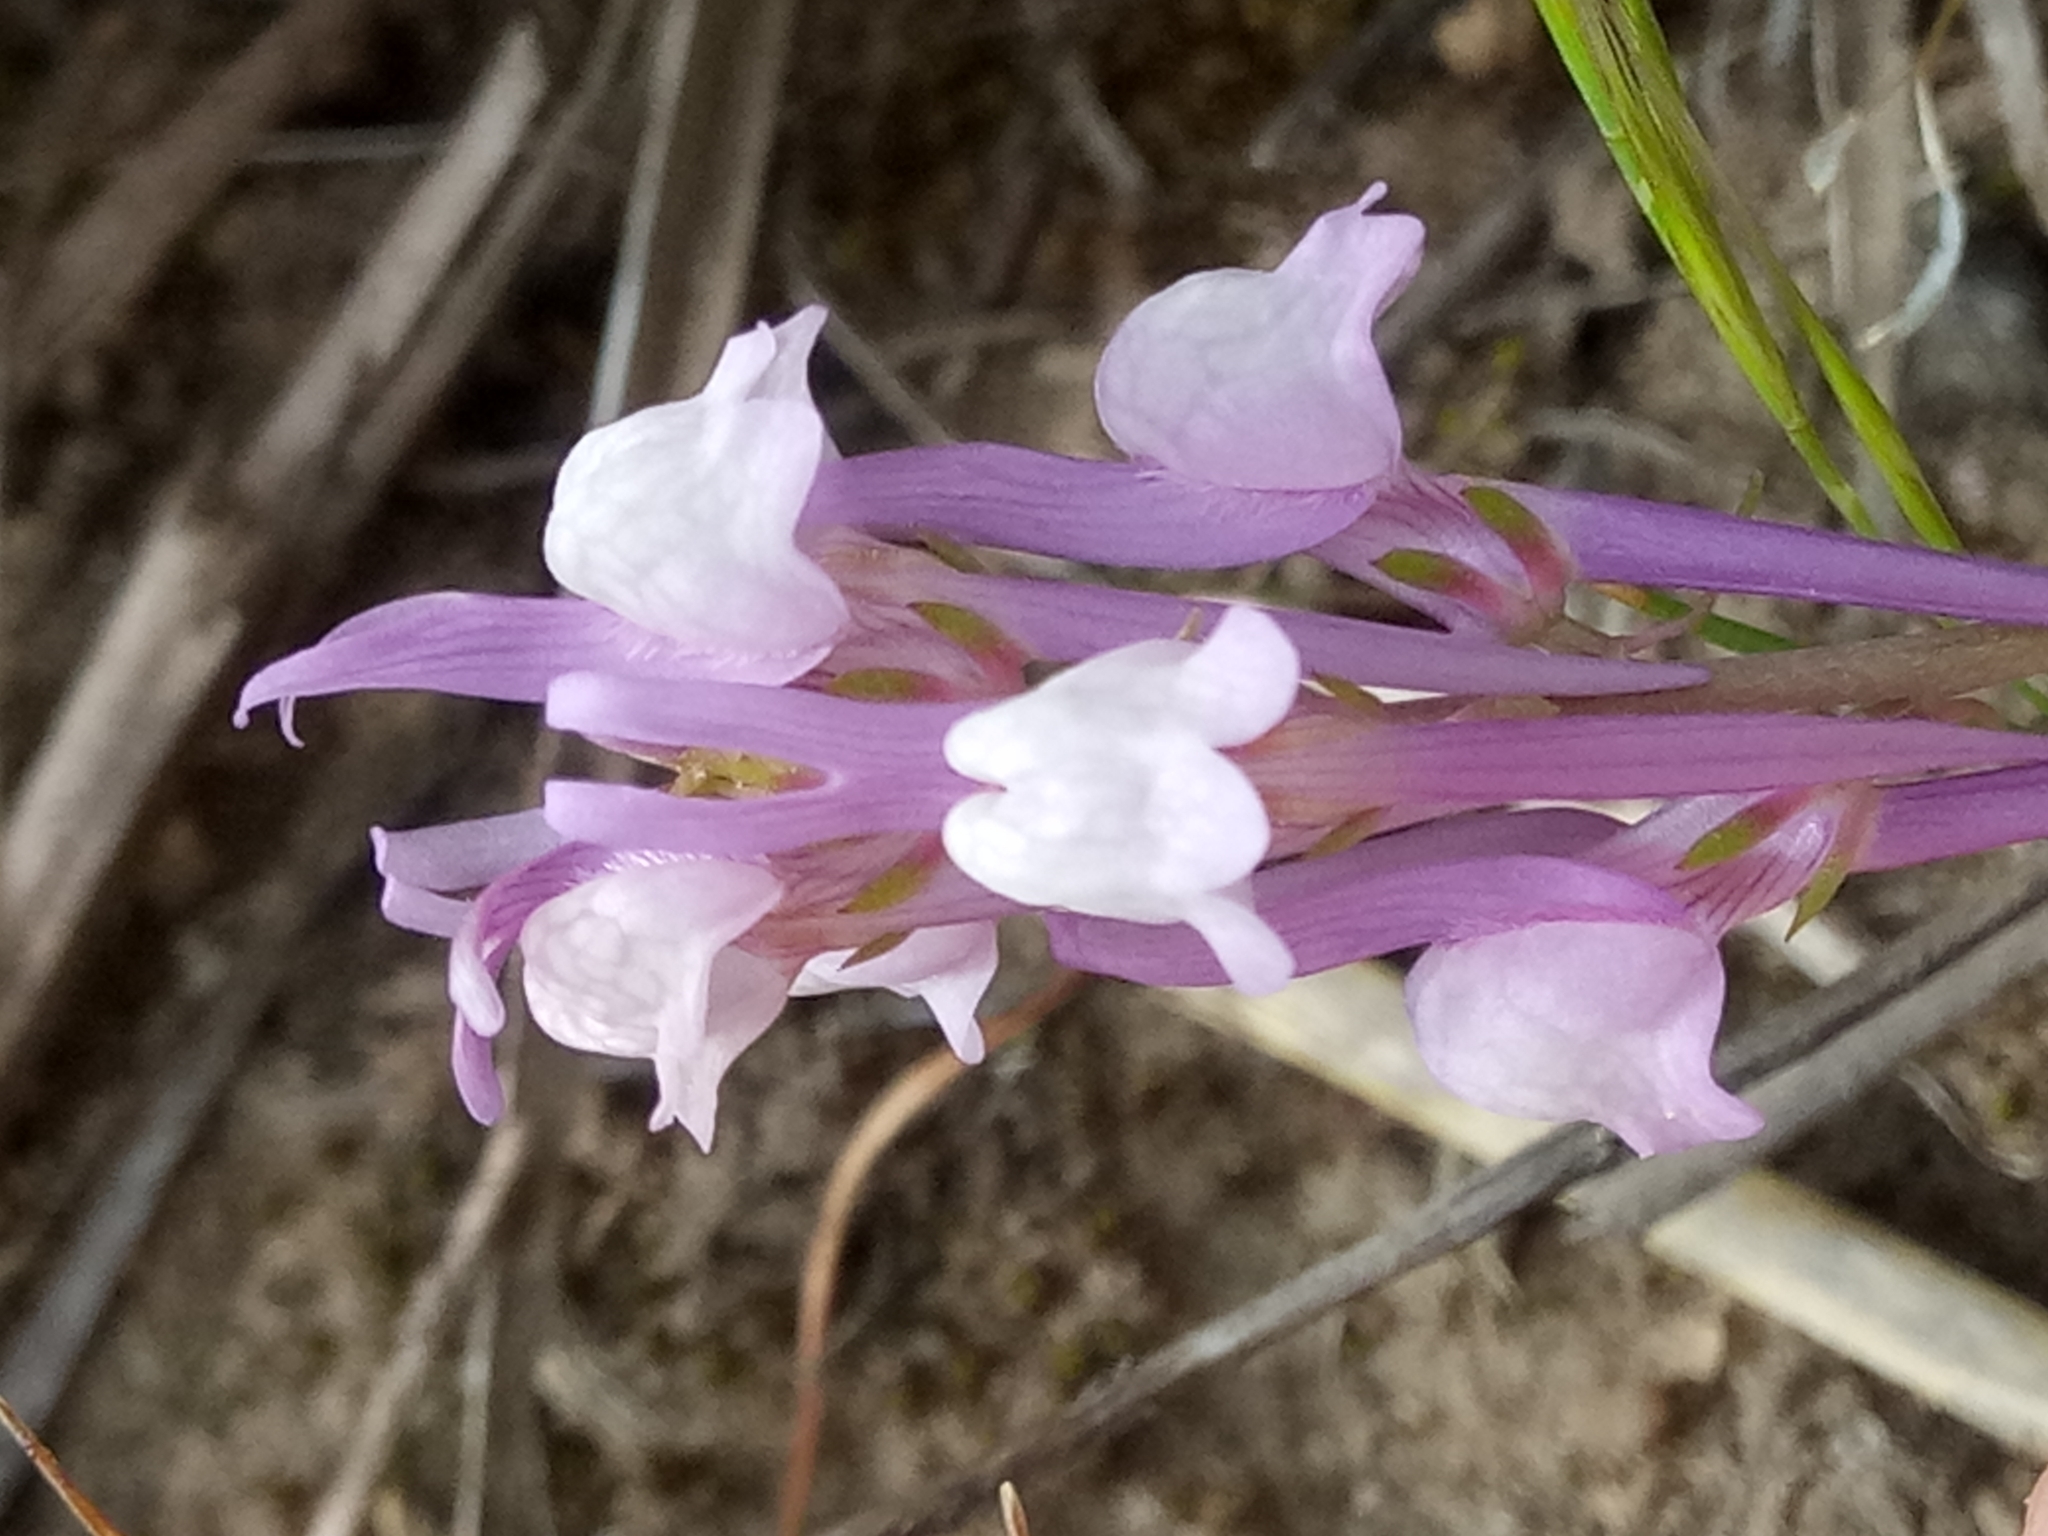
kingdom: Plantae
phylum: Tracheophyta
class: Magnoliopsida
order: Lamiales
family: Plantaginaceae
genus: Linaria
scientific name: Linaria virgata
